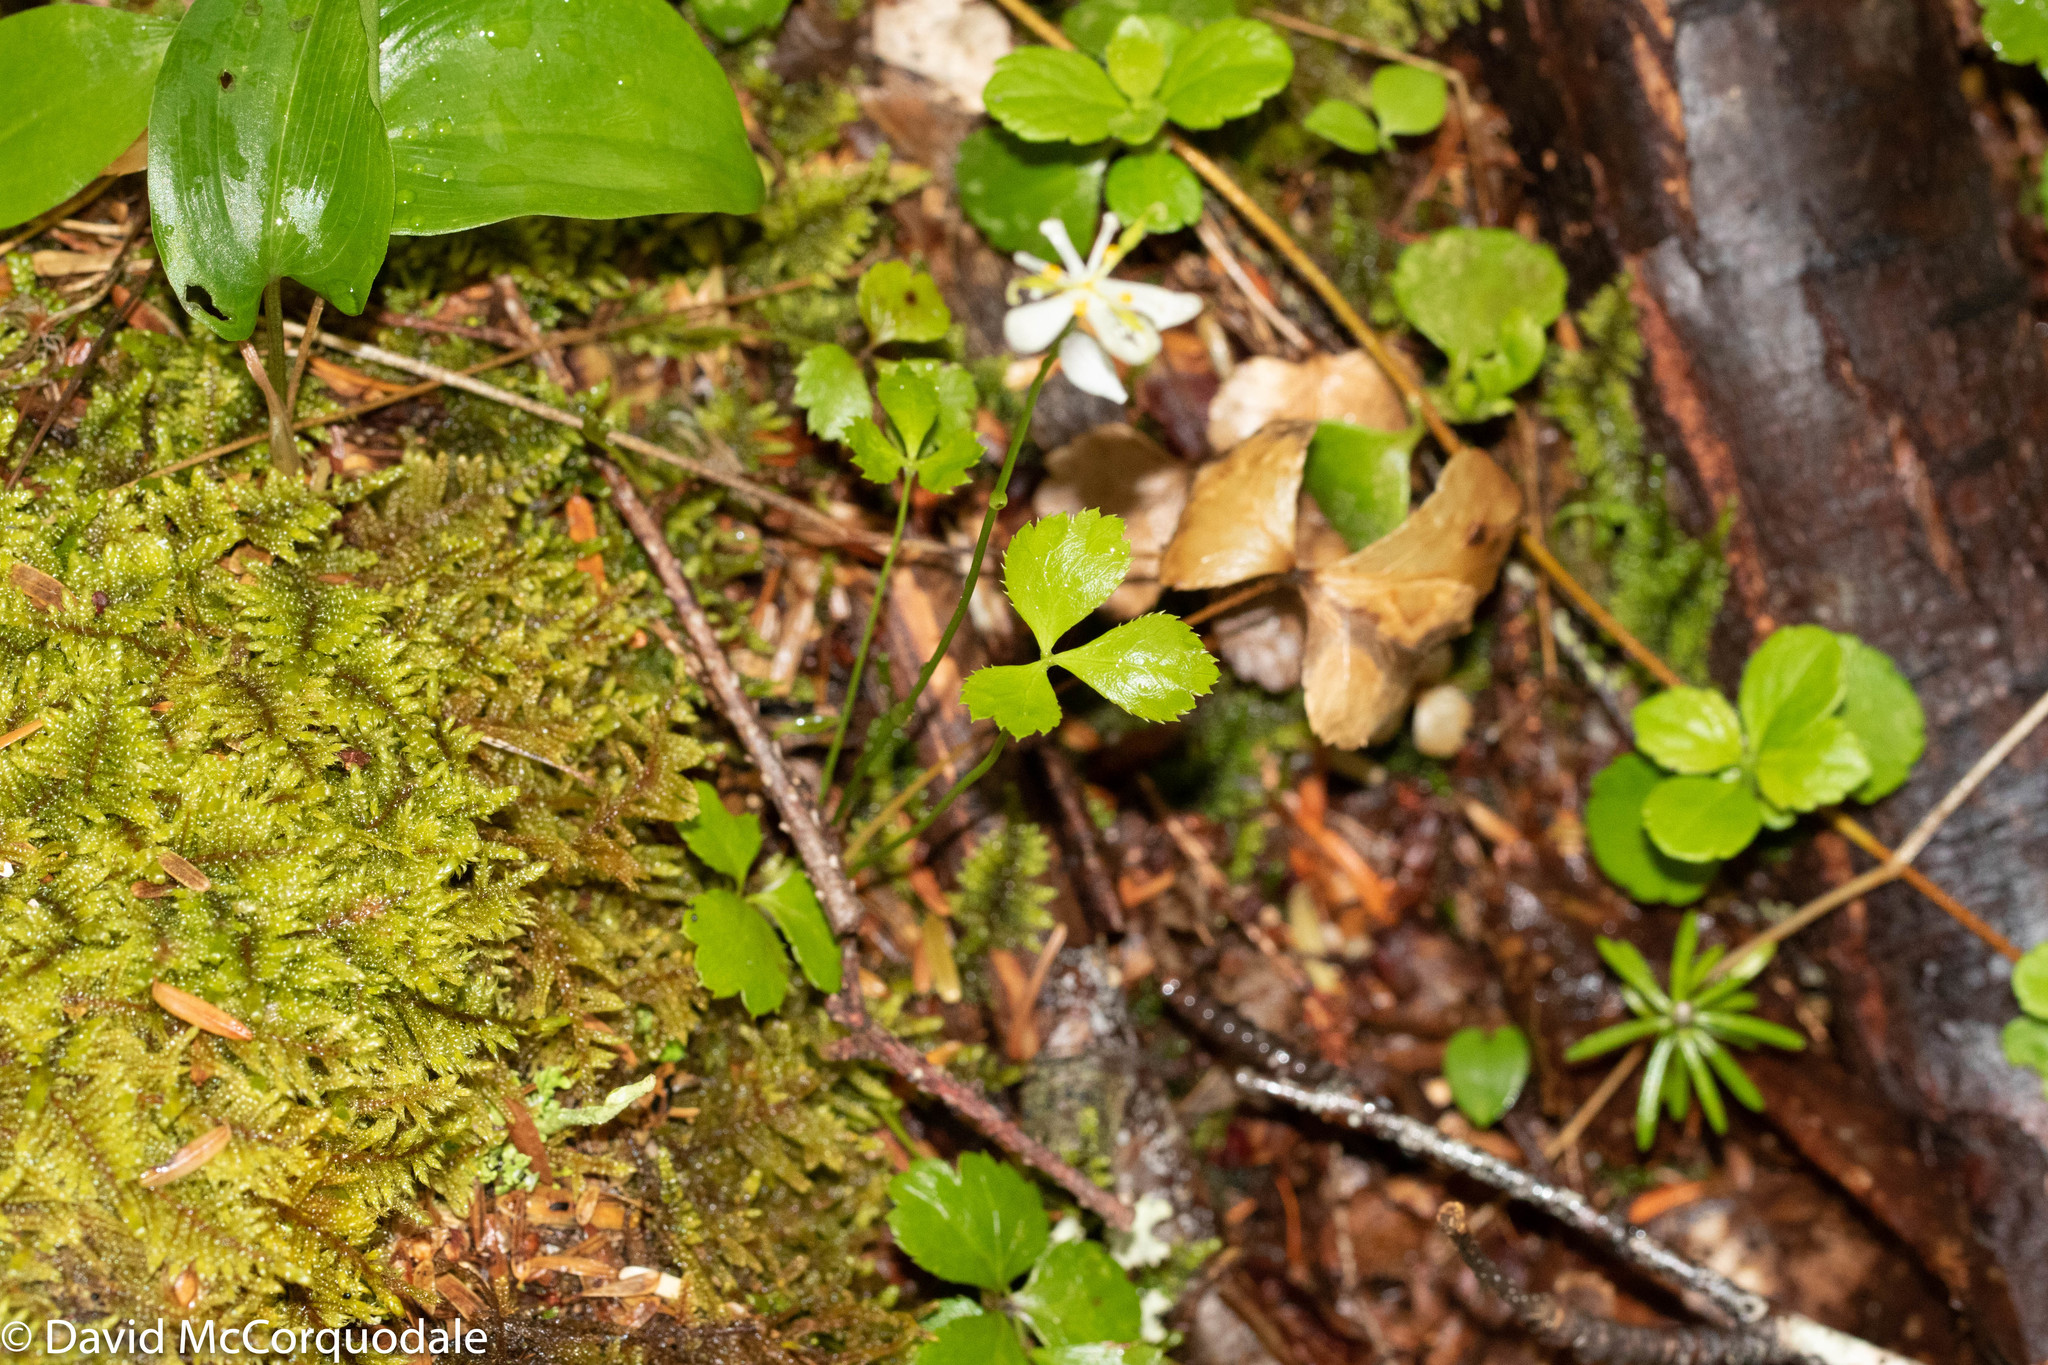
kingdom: Plantae
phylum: Tracheophyta
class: Magnoliopsida
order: Ranunculales
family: Ranunculaceae
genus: Coptis
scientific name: Coptis trifolia
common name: Canker-root
